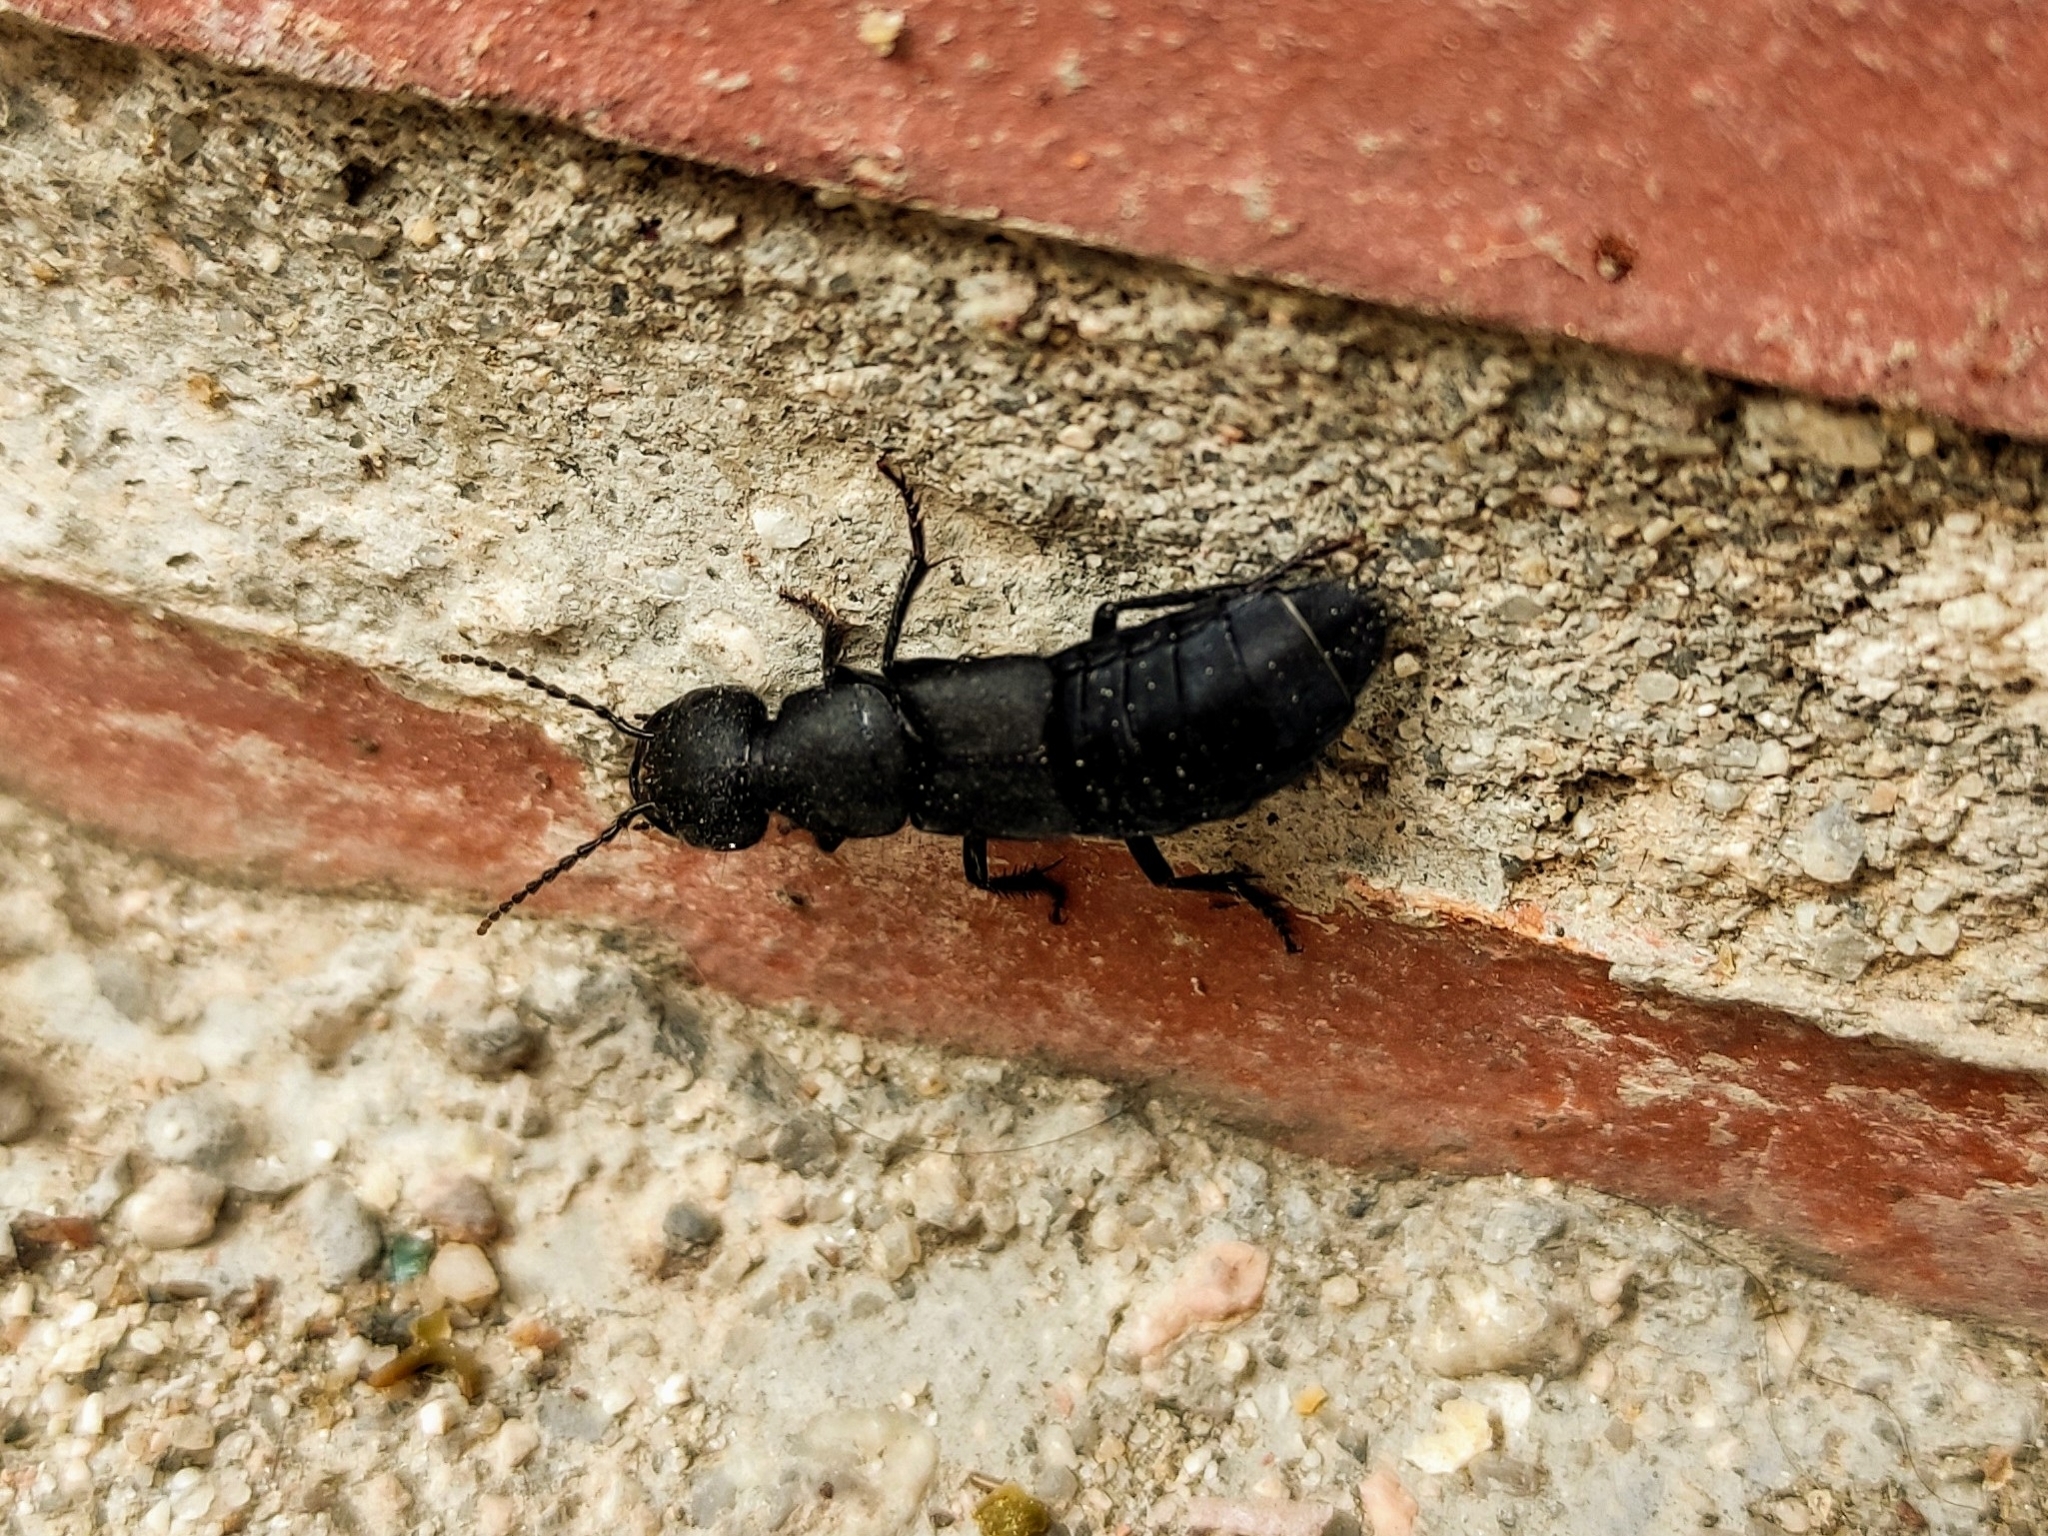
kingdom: Animalia
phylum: Arthropoda
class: Insecta
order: Coleoptera
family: Staphylinidae
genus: Ocypus
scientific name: Ocypus olens
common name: Devil's coach-horse
